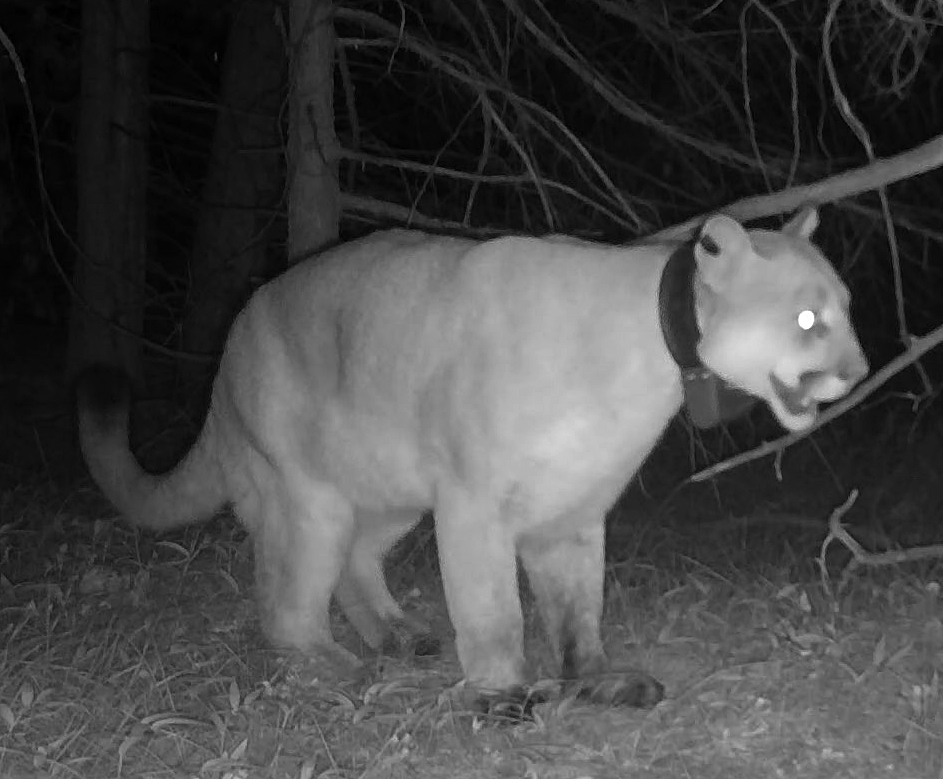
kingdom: Animalia
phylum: Chordata
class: Mammalia
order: Carnivora
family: Felidae
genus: Puma
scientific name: Puma concolor
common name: Puma
